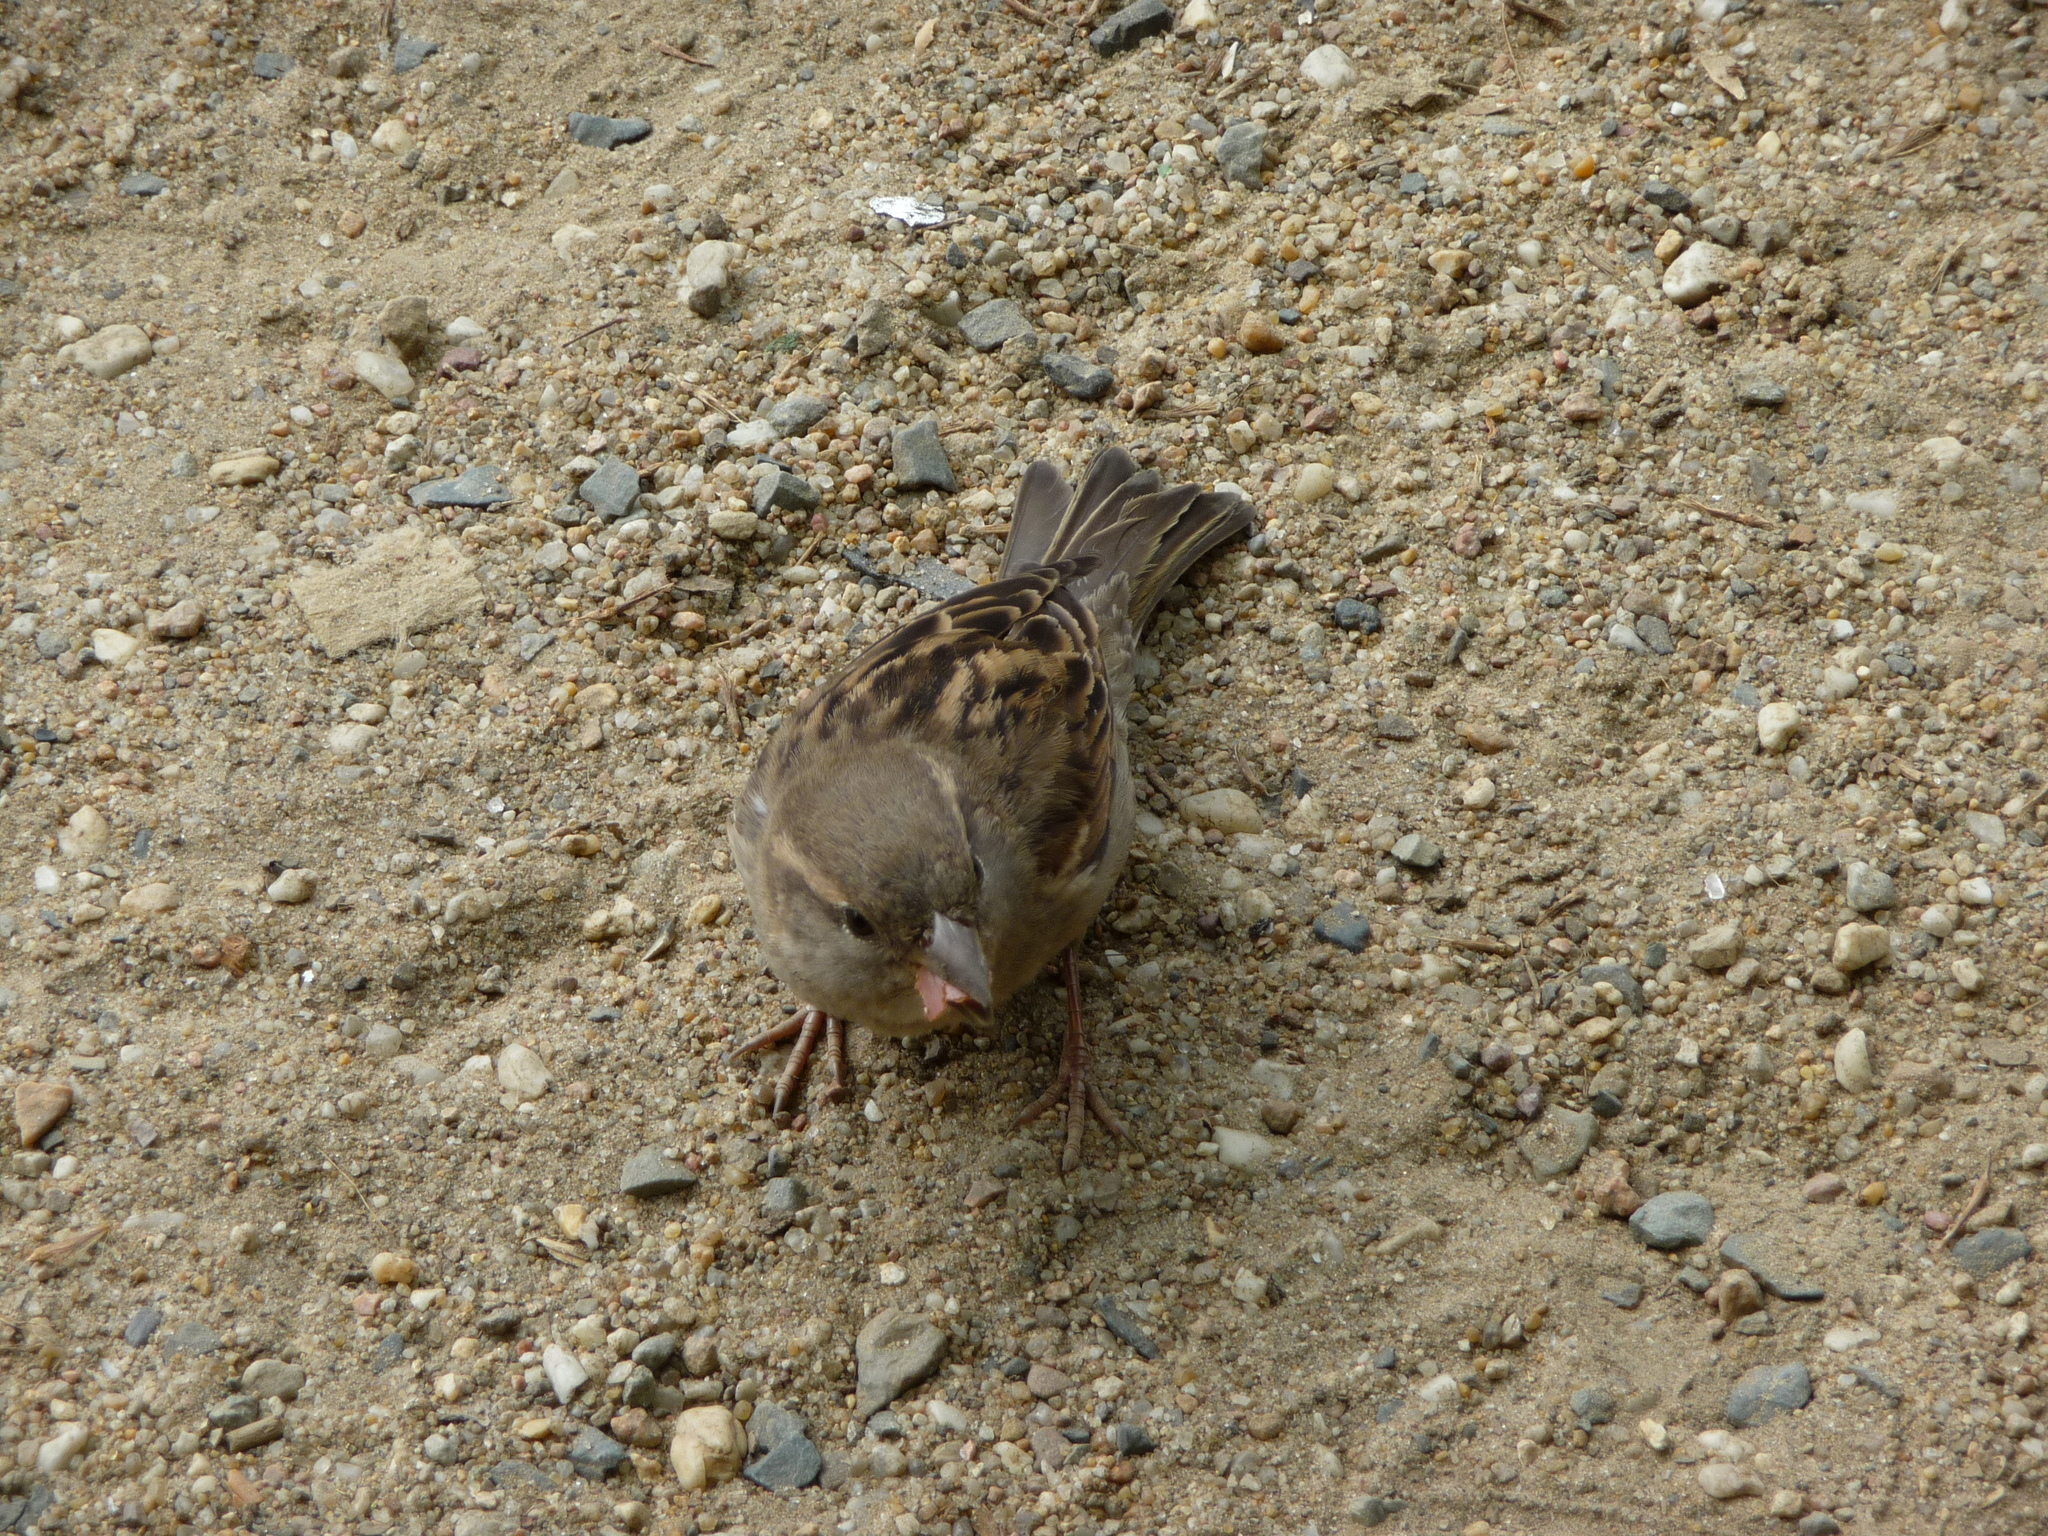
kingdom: Animalia
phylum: Chordata
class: Aves
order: Passeriformes
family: Passeridae
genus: Passer
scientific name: Passer domesticus
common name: House sparrow
